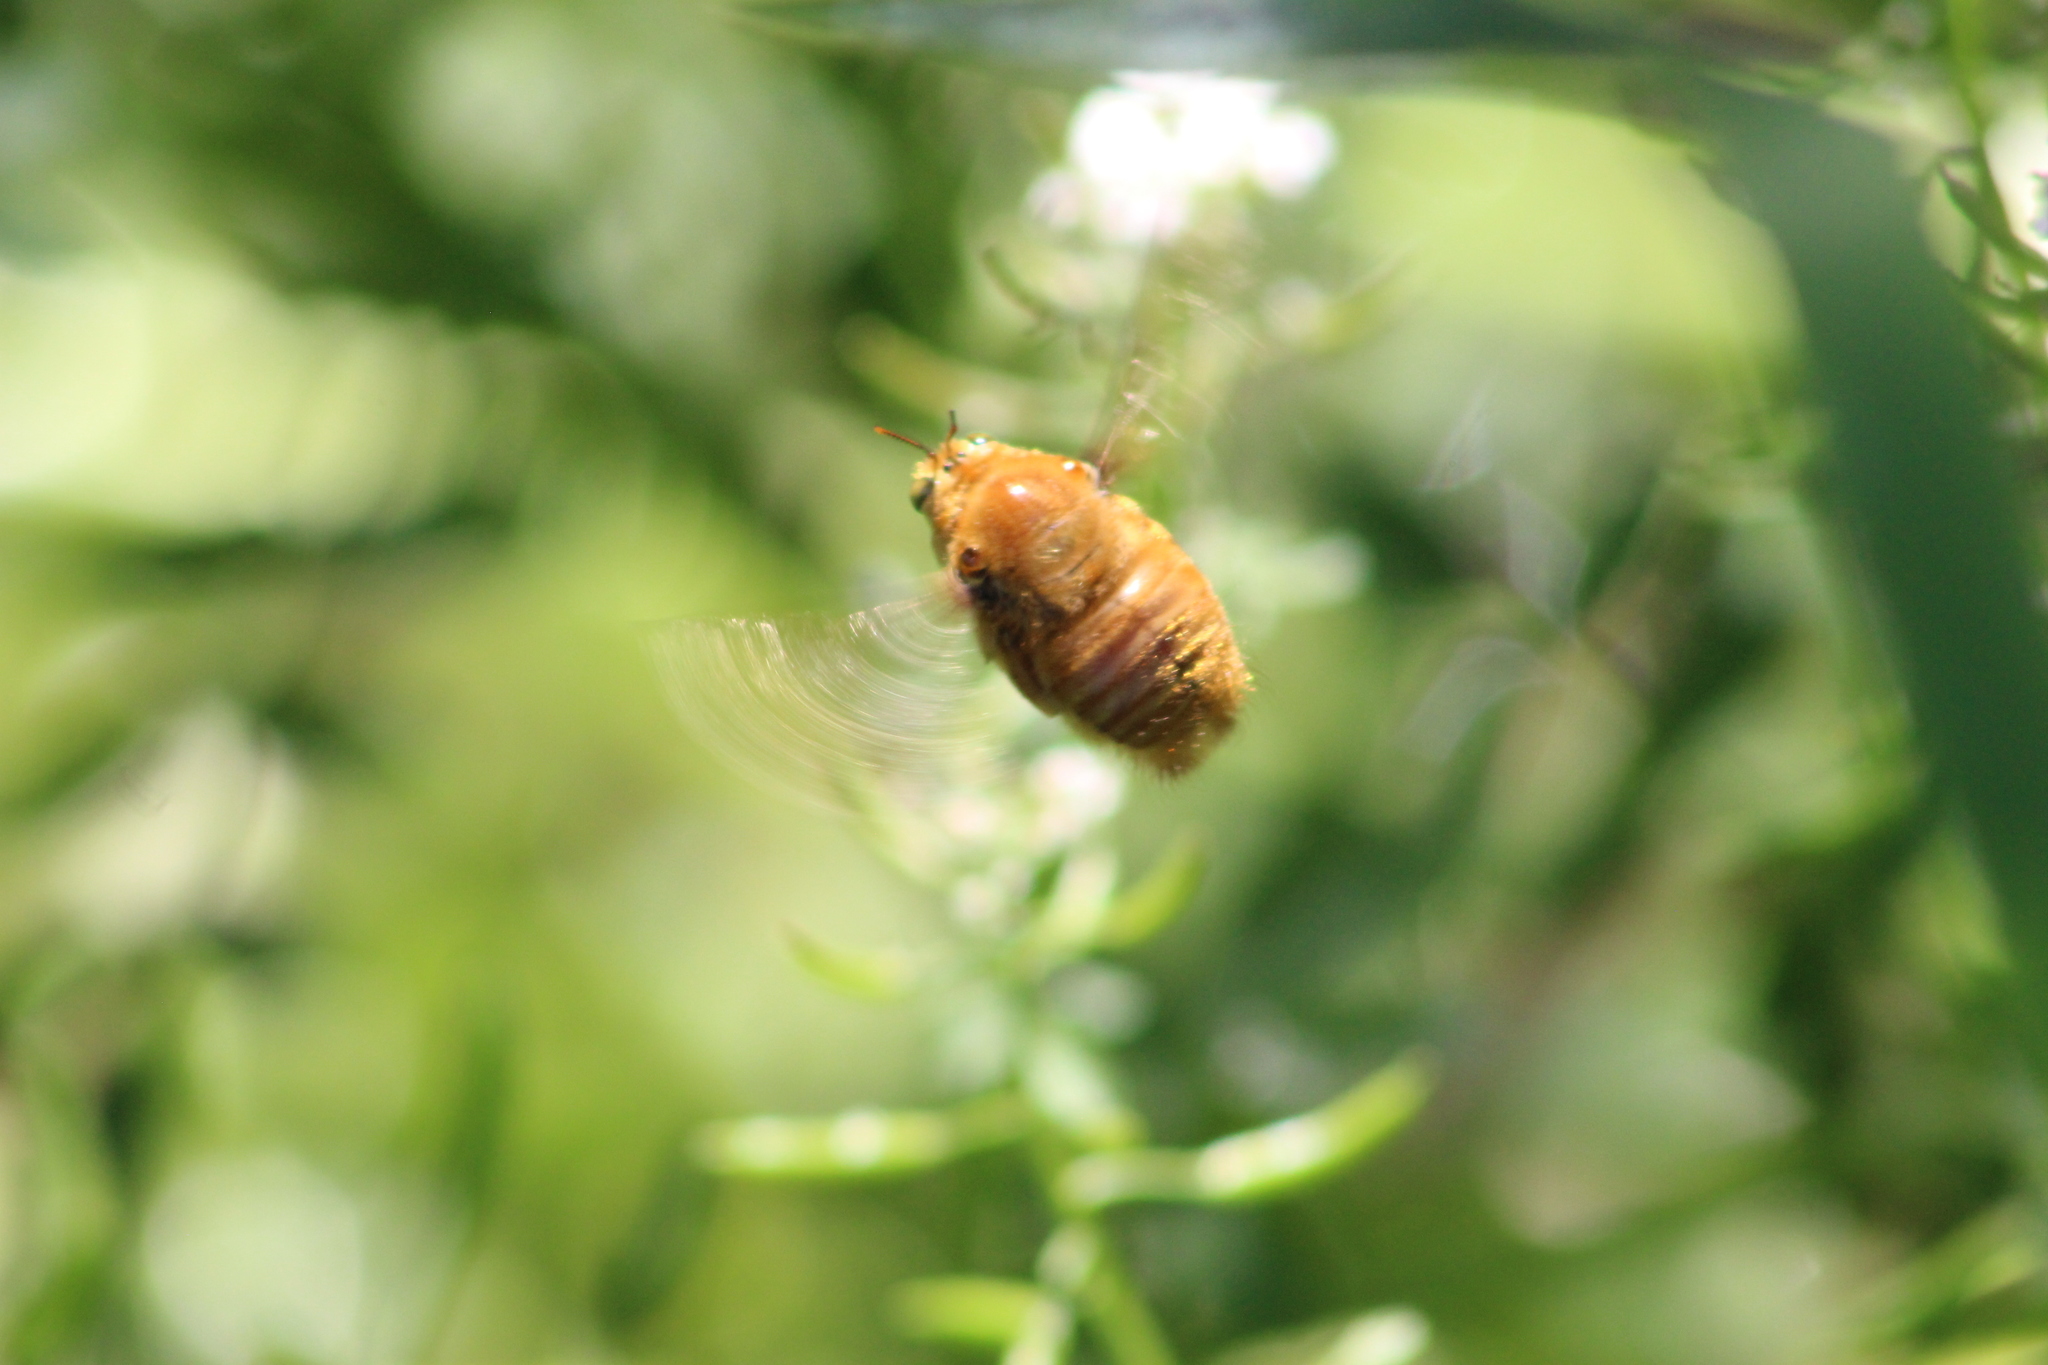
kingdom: Animalia
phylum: Arthropoda
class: Insecta
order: Hymenoptera
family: Apidae
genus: Xylocopa
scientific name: Xylocopa sonorina
